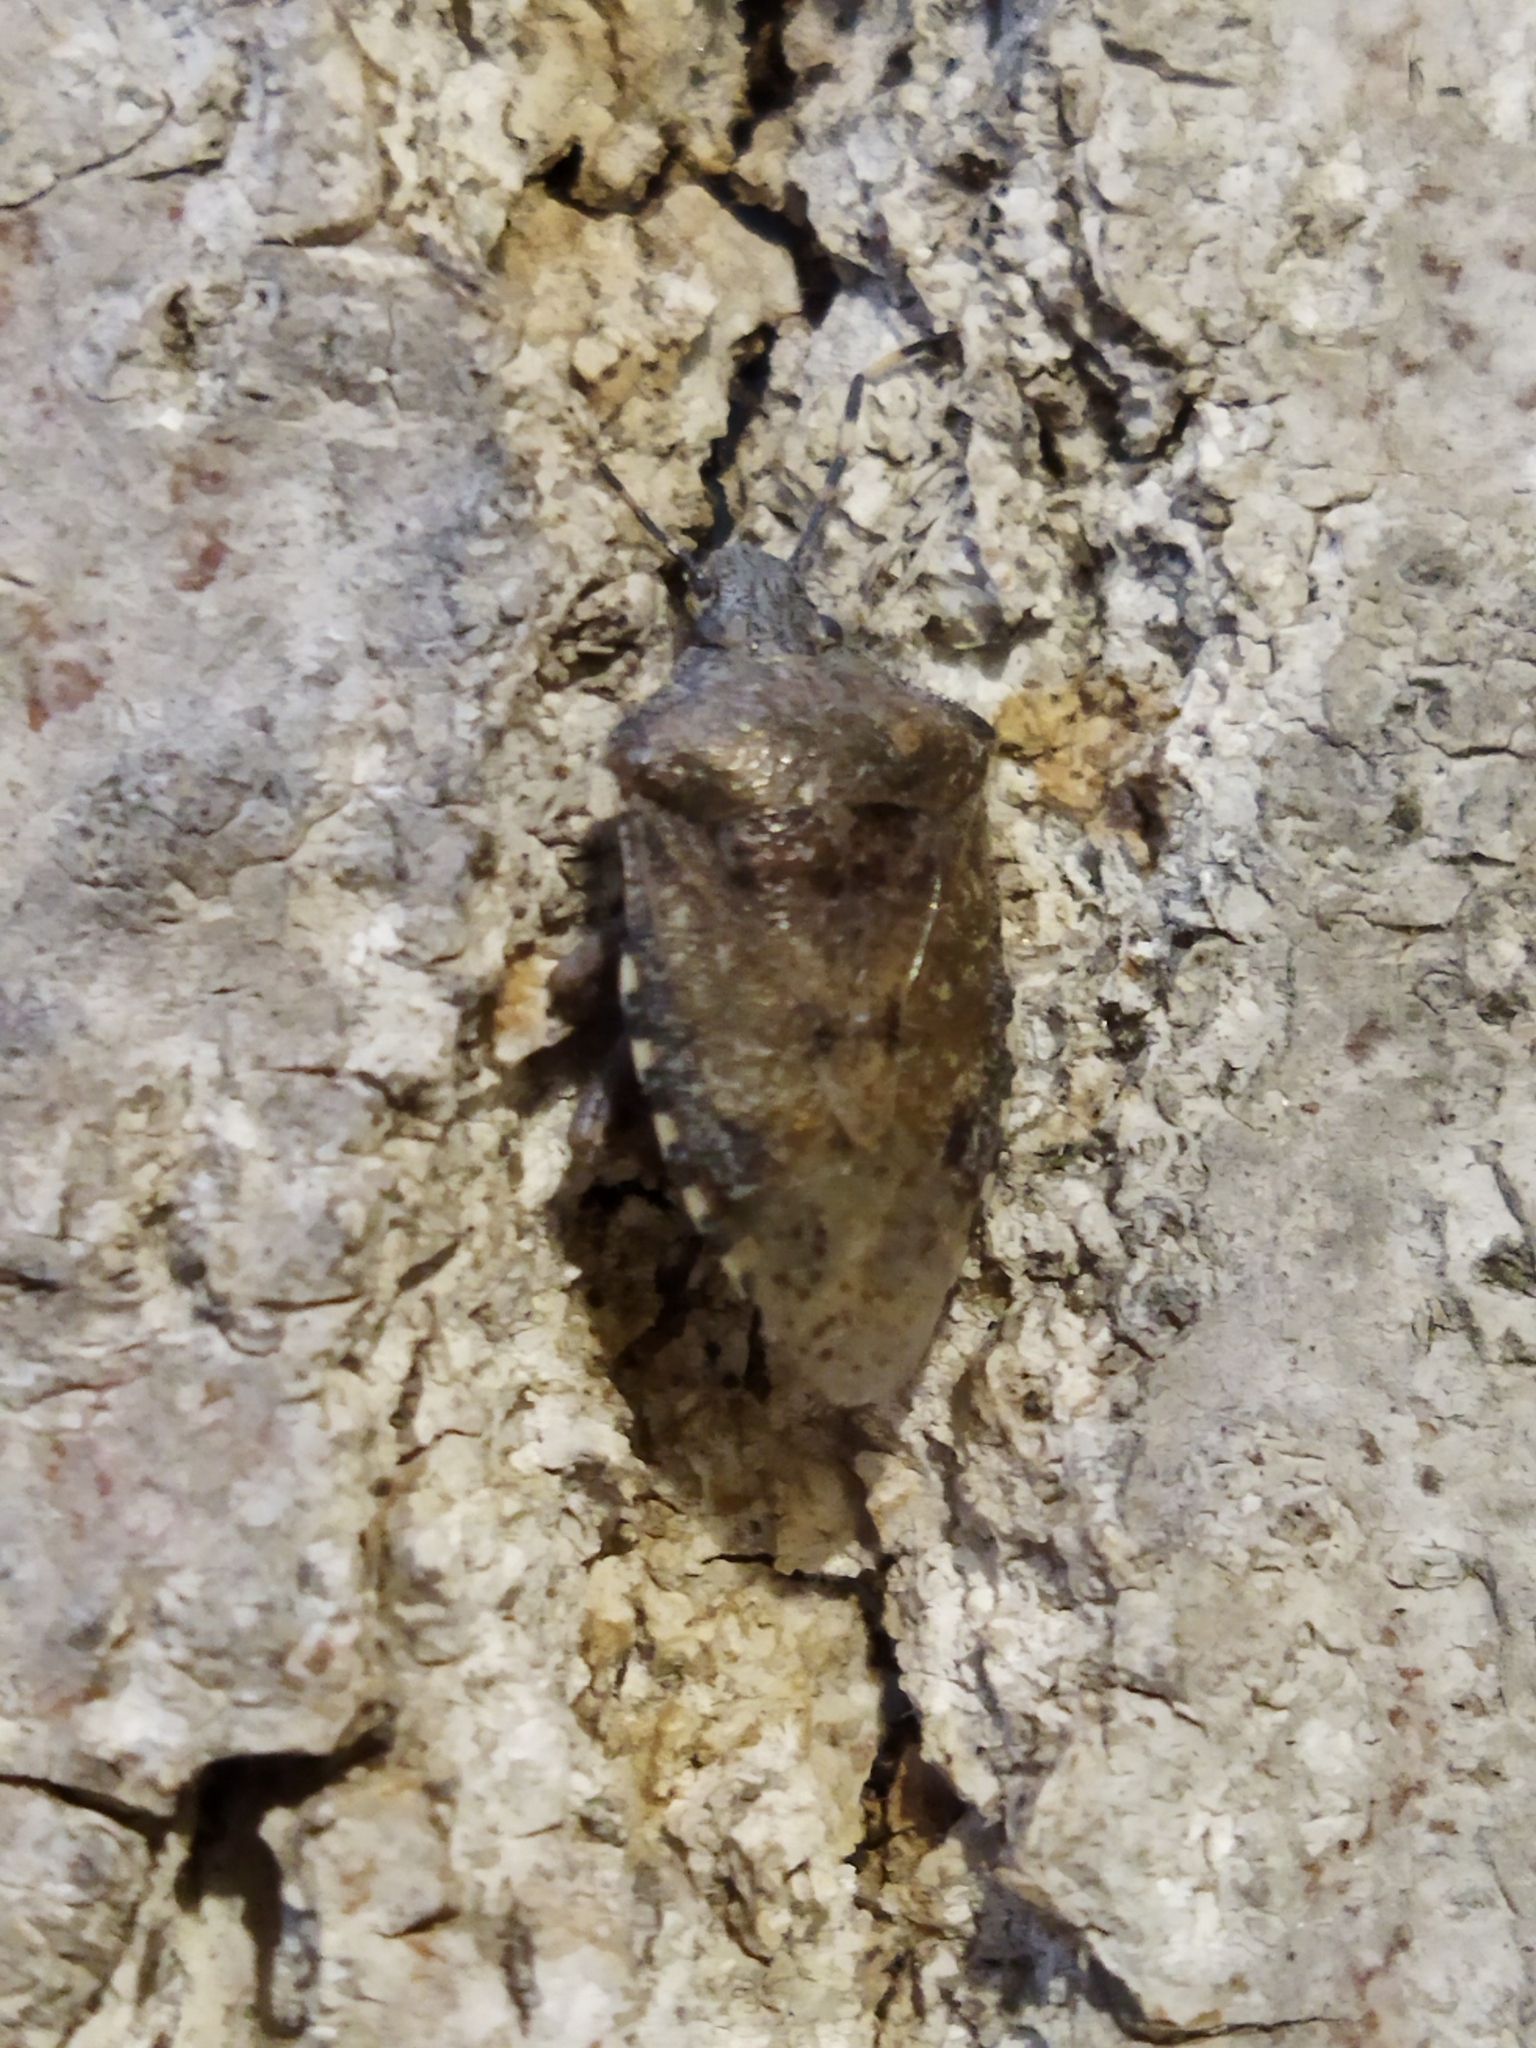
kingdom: Animalia
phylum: Arthropoda
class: Insecta
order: Hemiptera
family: Pentatomidae
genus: Rhaphigaster
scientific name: Rhaphigaster nebulosa
